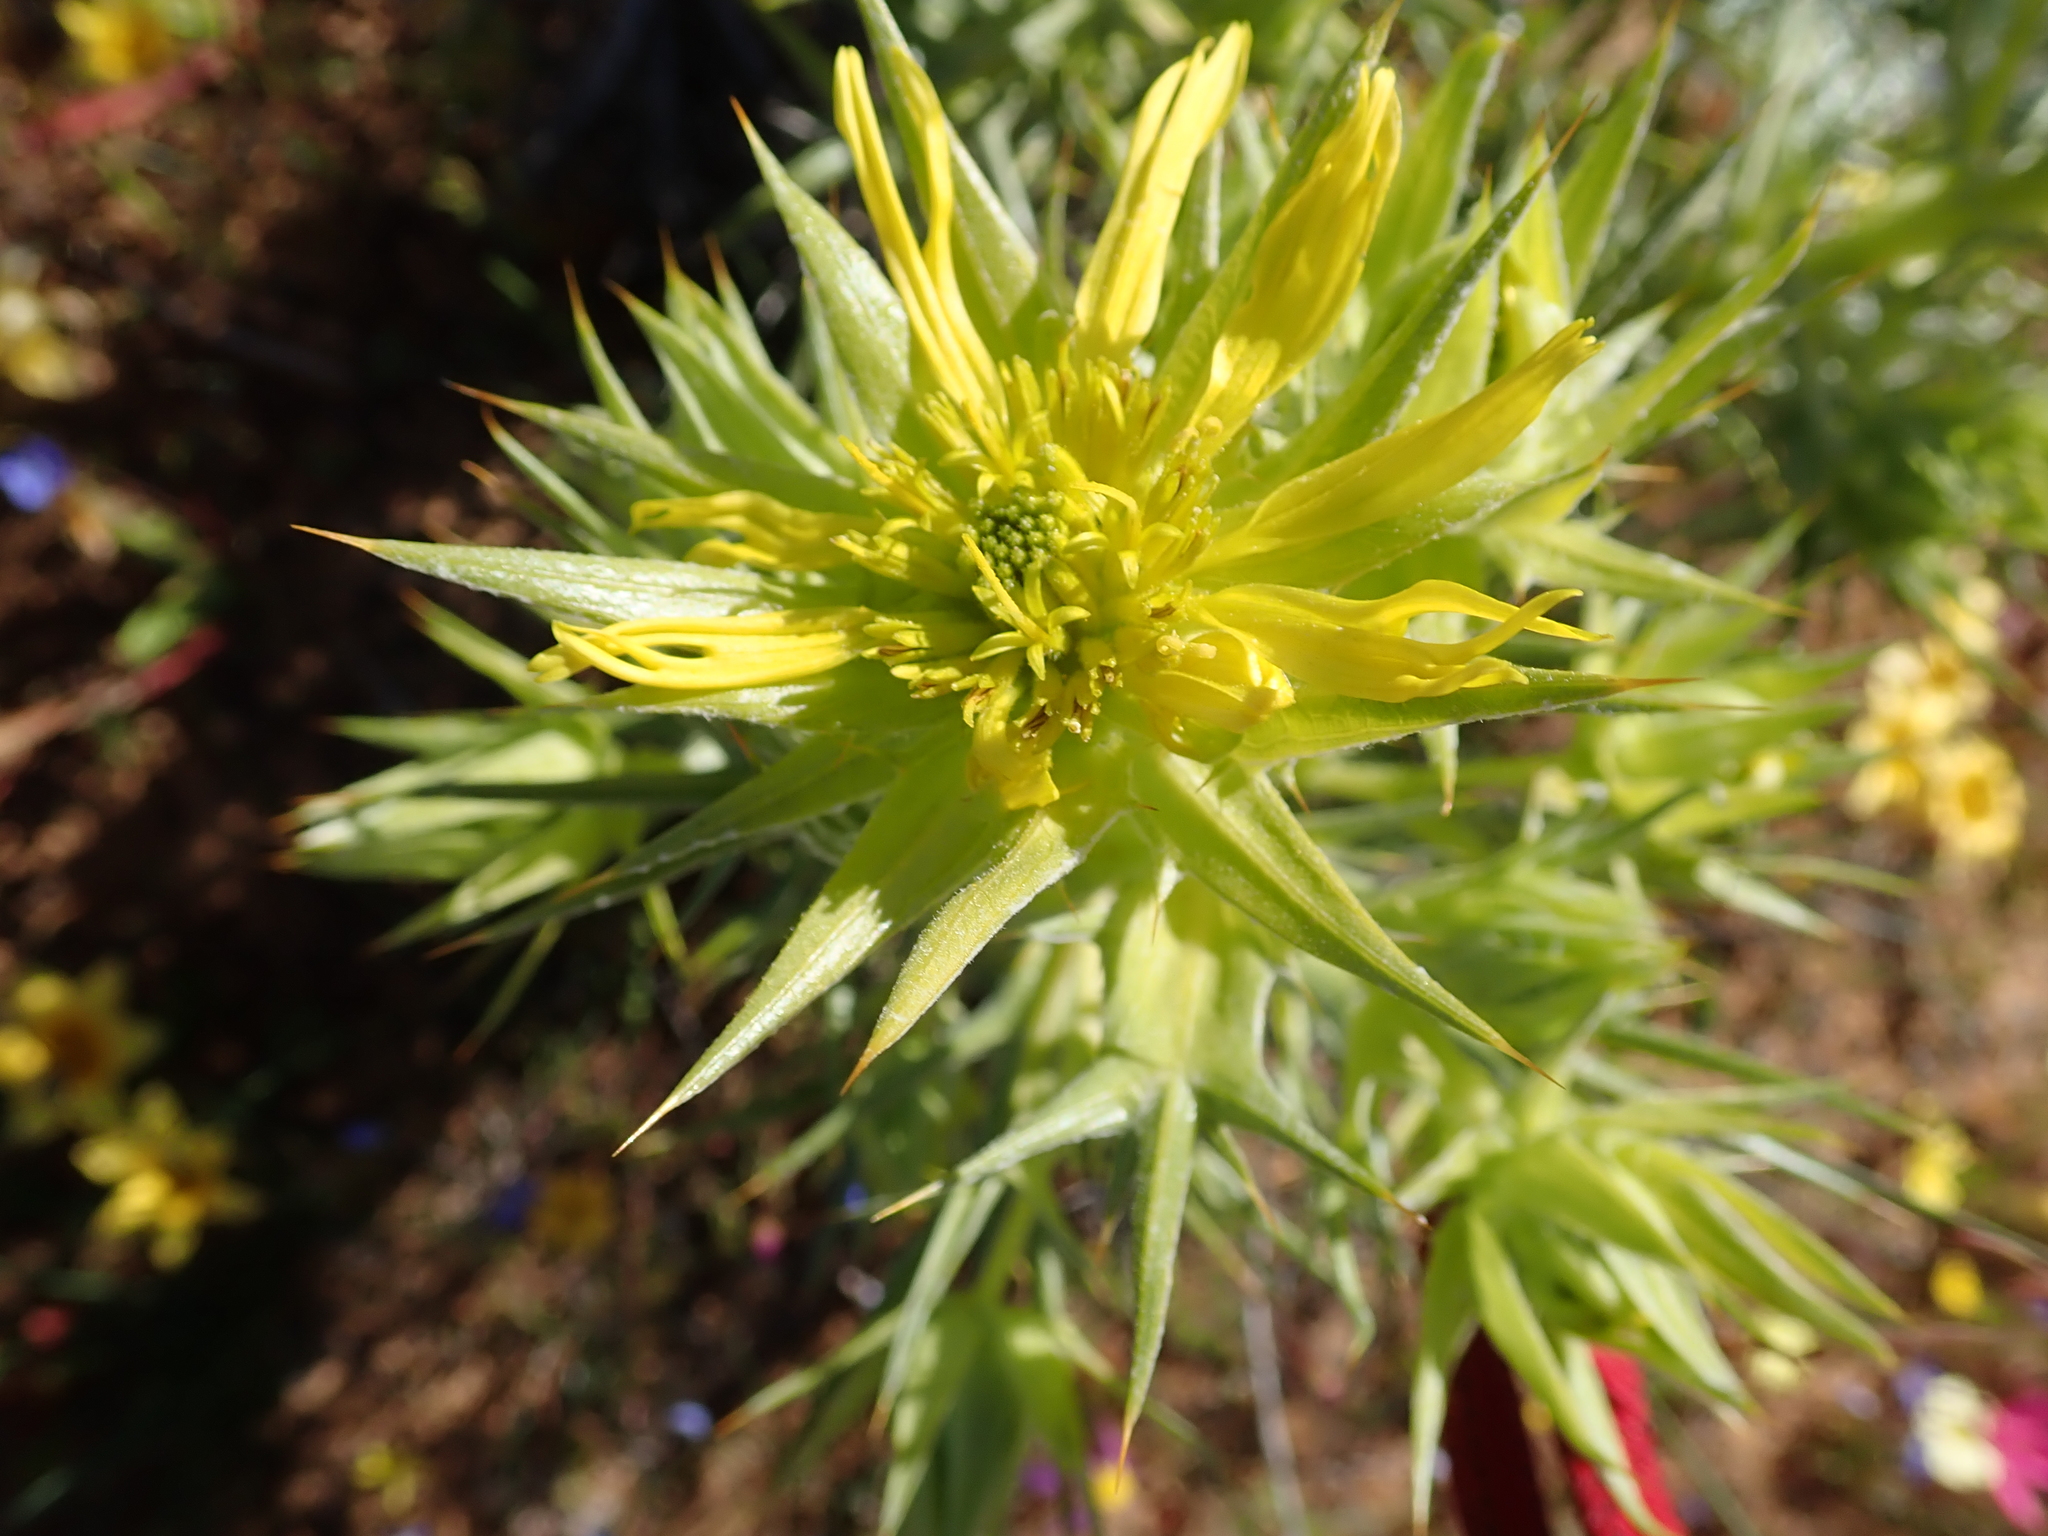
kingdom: Plantae
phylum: Tracheophyta
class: Magnoliopsida
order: Asterales
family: Asteraceae
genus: Heterorhachis
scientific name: Heterorhachis aculeata
